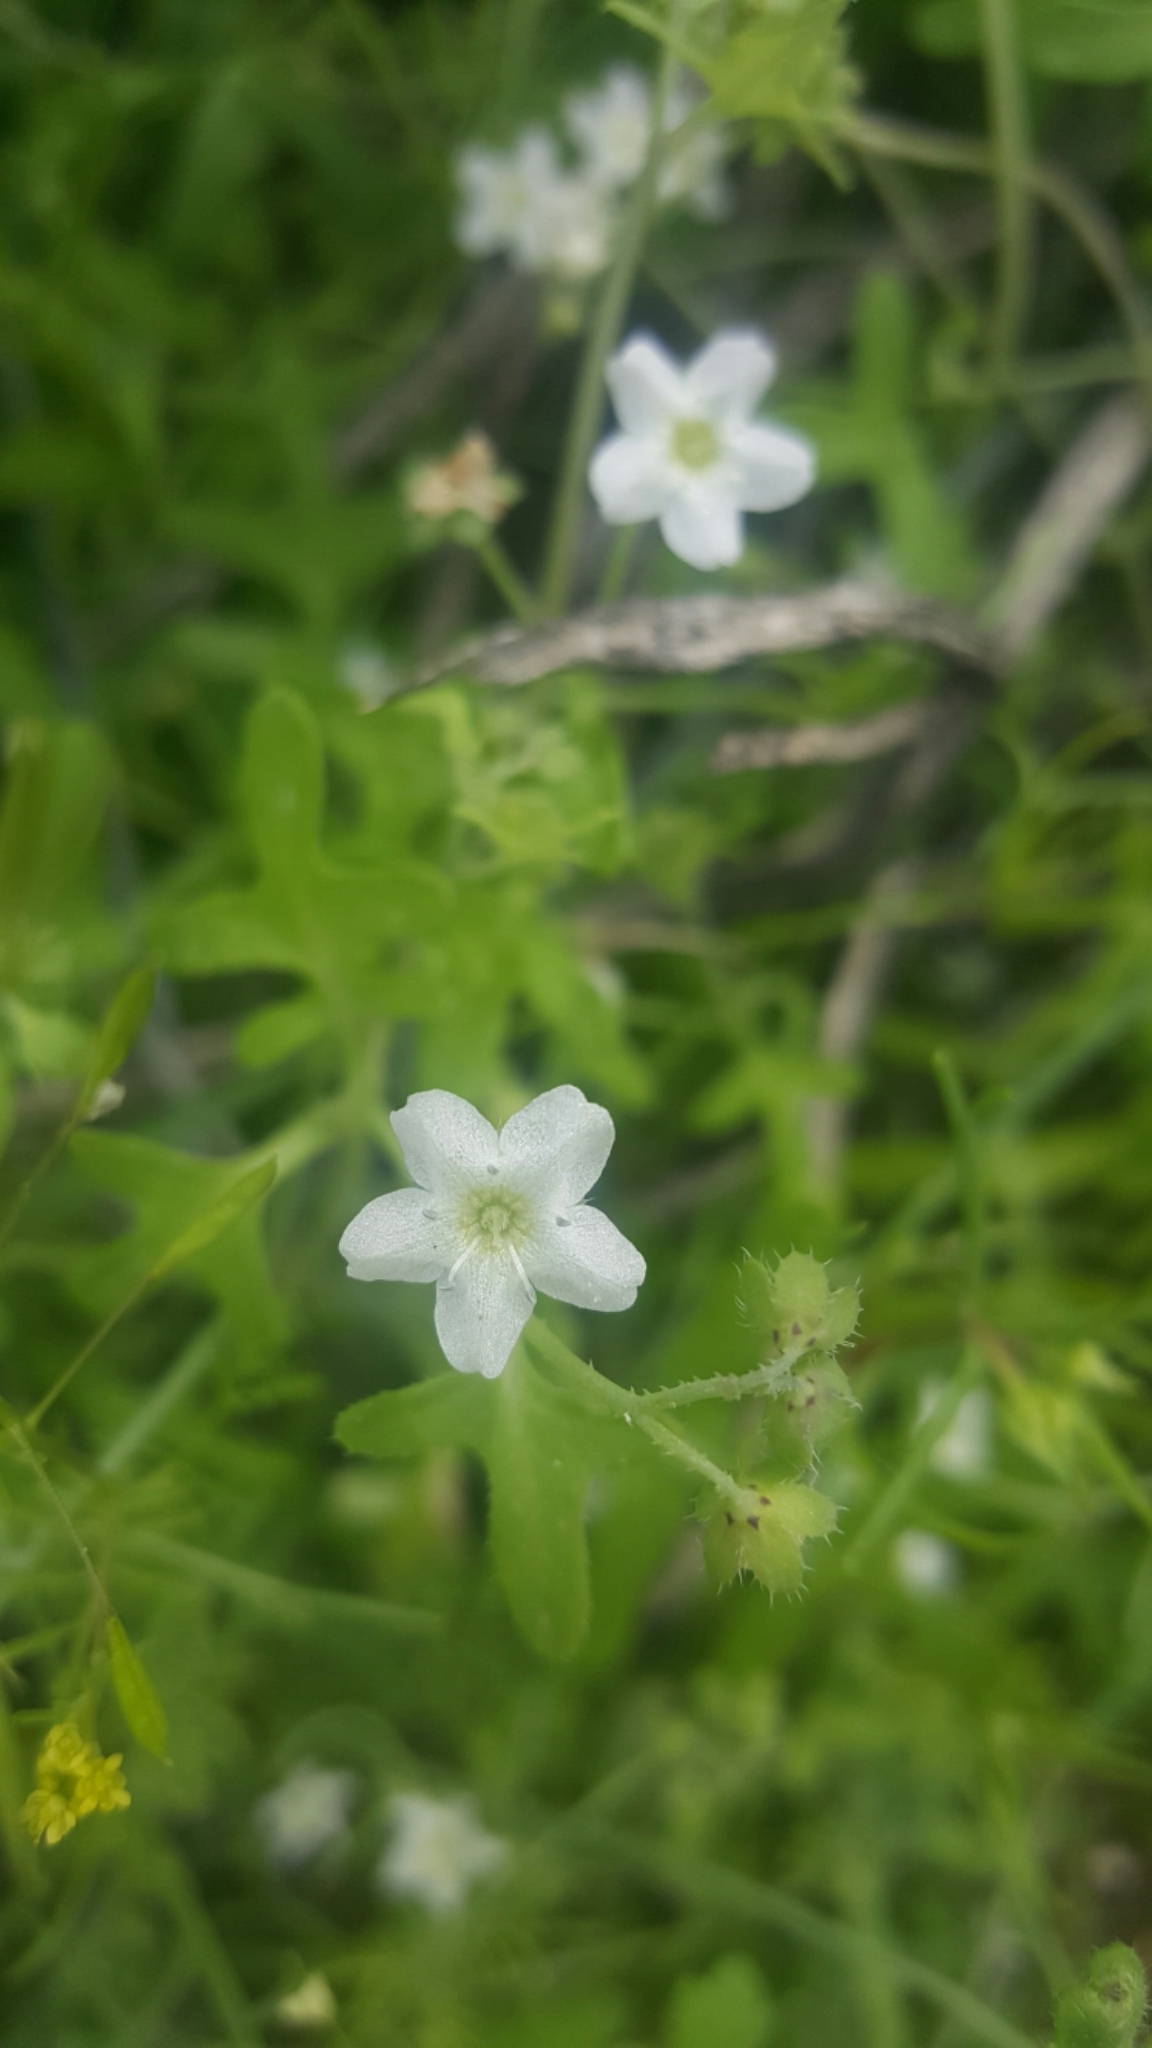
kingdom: Plantae
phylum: Tracheophyta
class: Magnoliopsida
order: Boraginales
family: Hydrophyllaceae
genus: Pholistoma
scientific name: Pholistoma membranaceum
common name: White fiesta-flower
